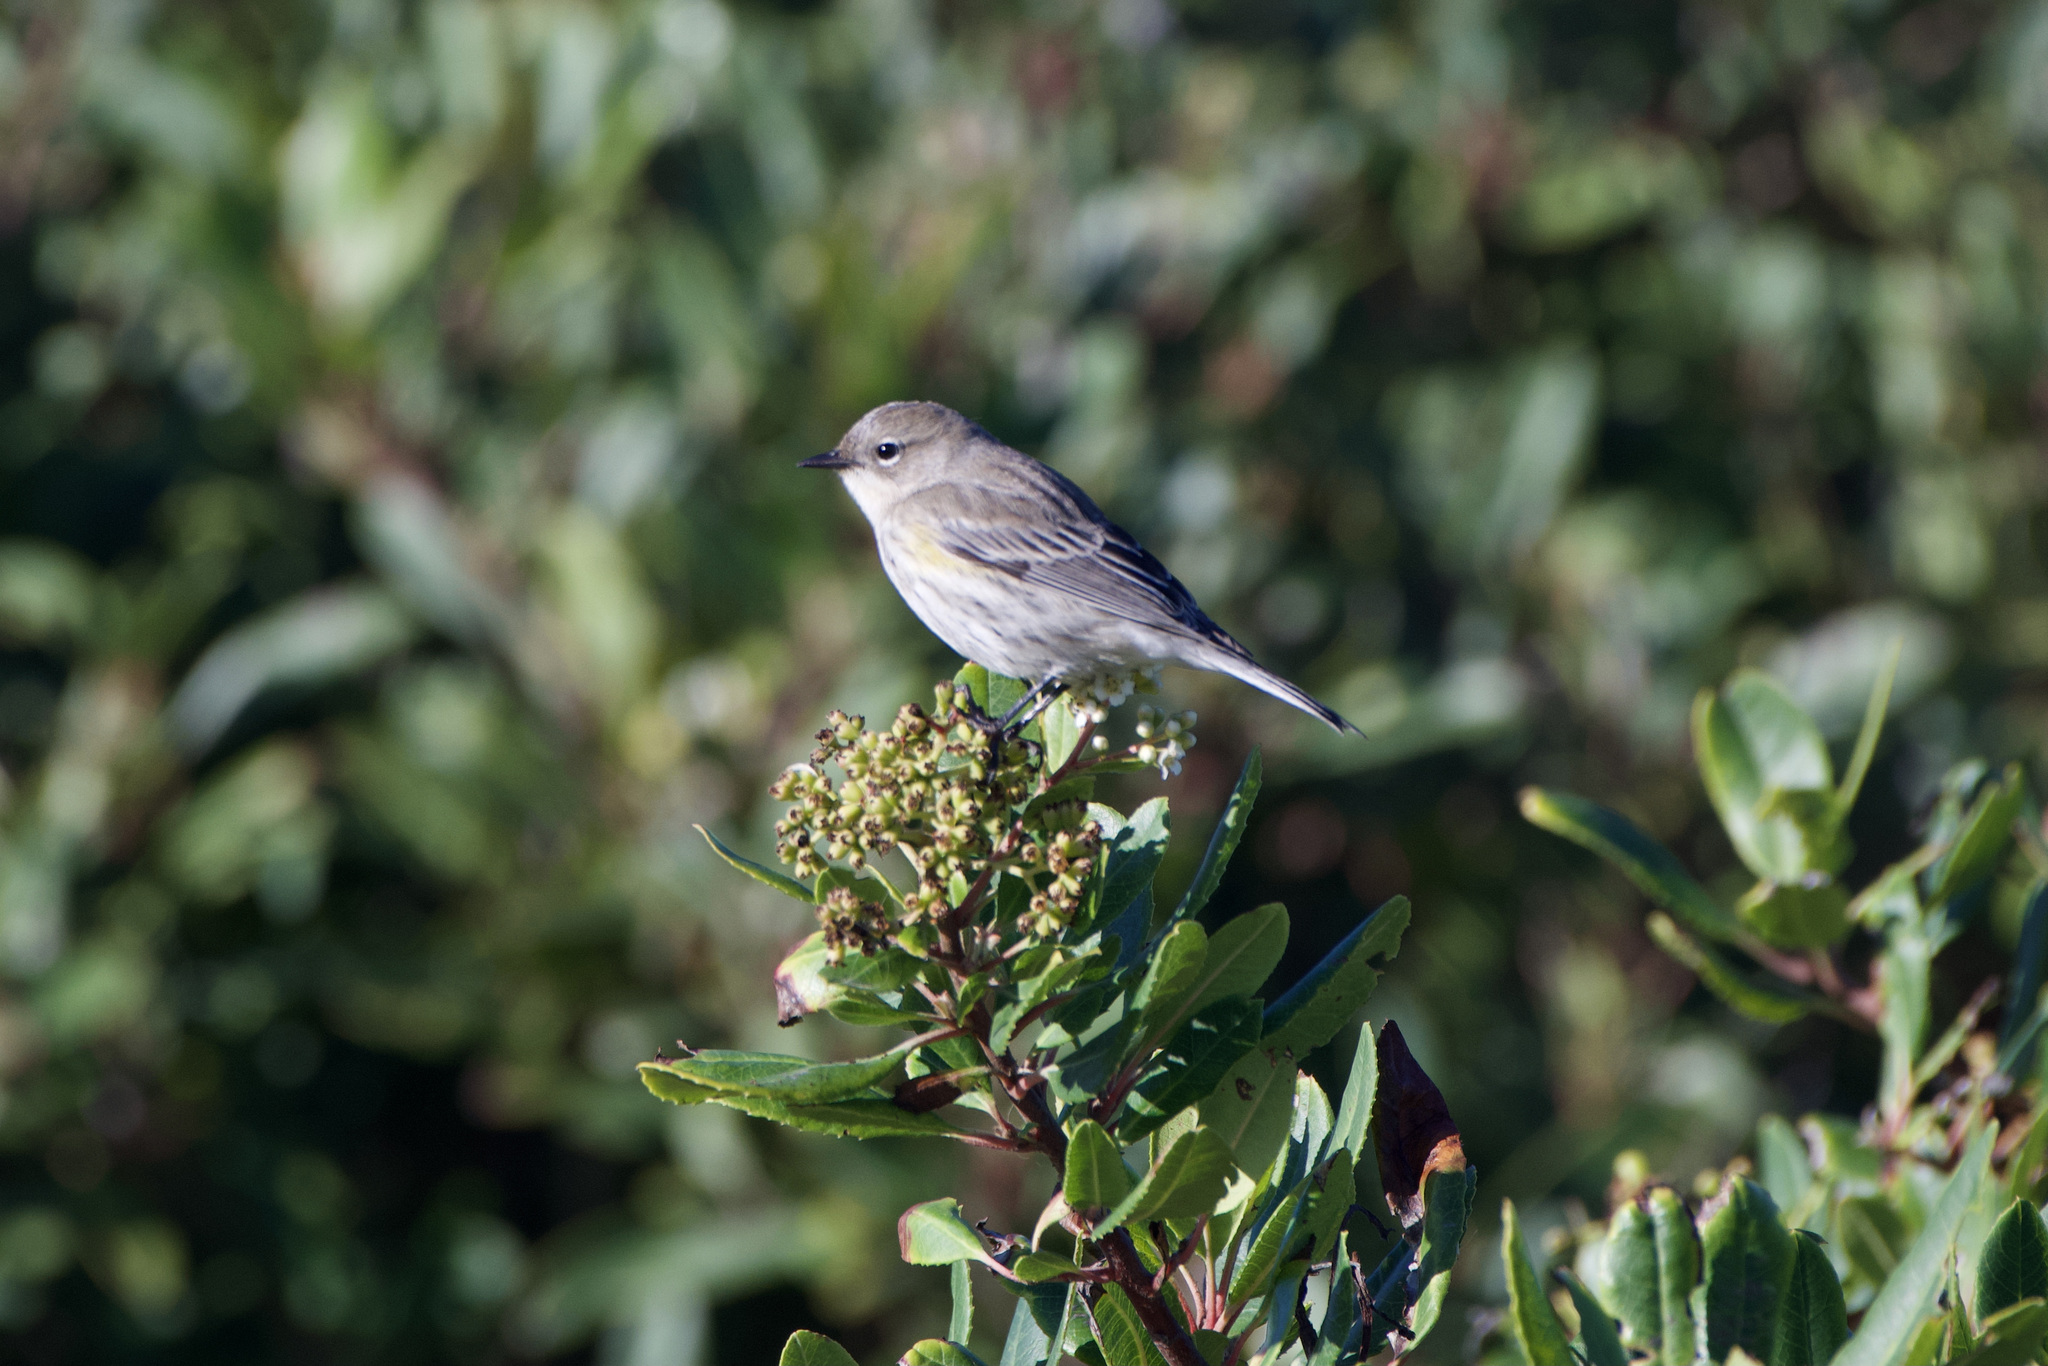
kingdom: Animalia
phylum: Chordata
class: Aves
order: Passeriformes
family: Parulidae
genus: Setophaga
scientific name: Setophaga coronata
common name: Myrtle warbler
